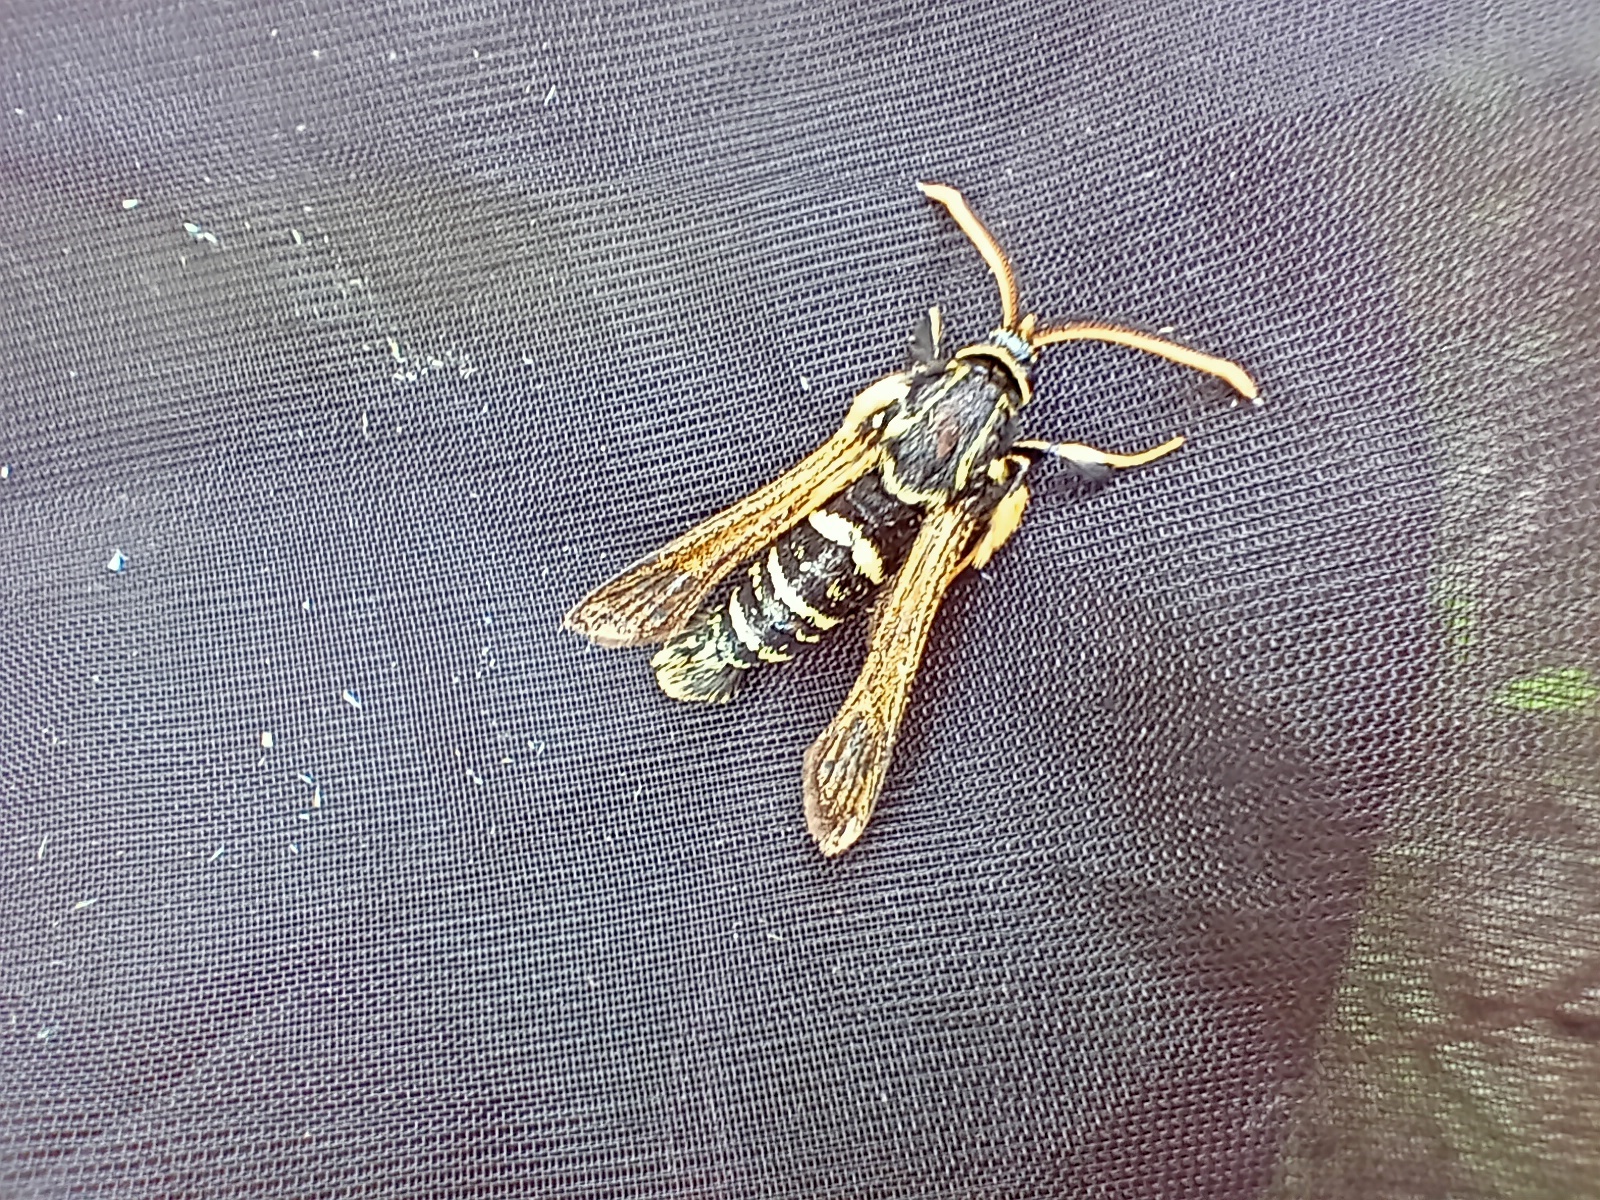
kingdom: Animalia
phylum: Arthropoda
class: Insecta
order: Lepidoptera
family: Sesiidae
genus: Paranthrene
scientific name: Paranthrene insolitus
